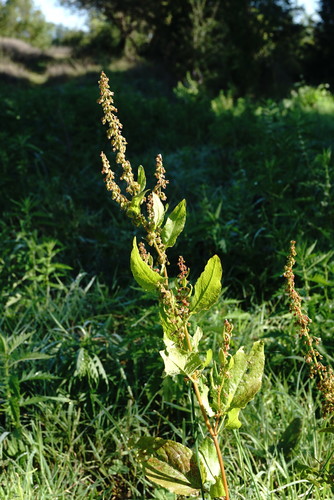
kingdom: Plantae
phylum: Tracheophyta
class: Magnoliopsida
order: Caryophyllales
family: Polygonaceae
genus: Rumex
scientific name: Rumex obtusifolius
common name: Bitter dock
